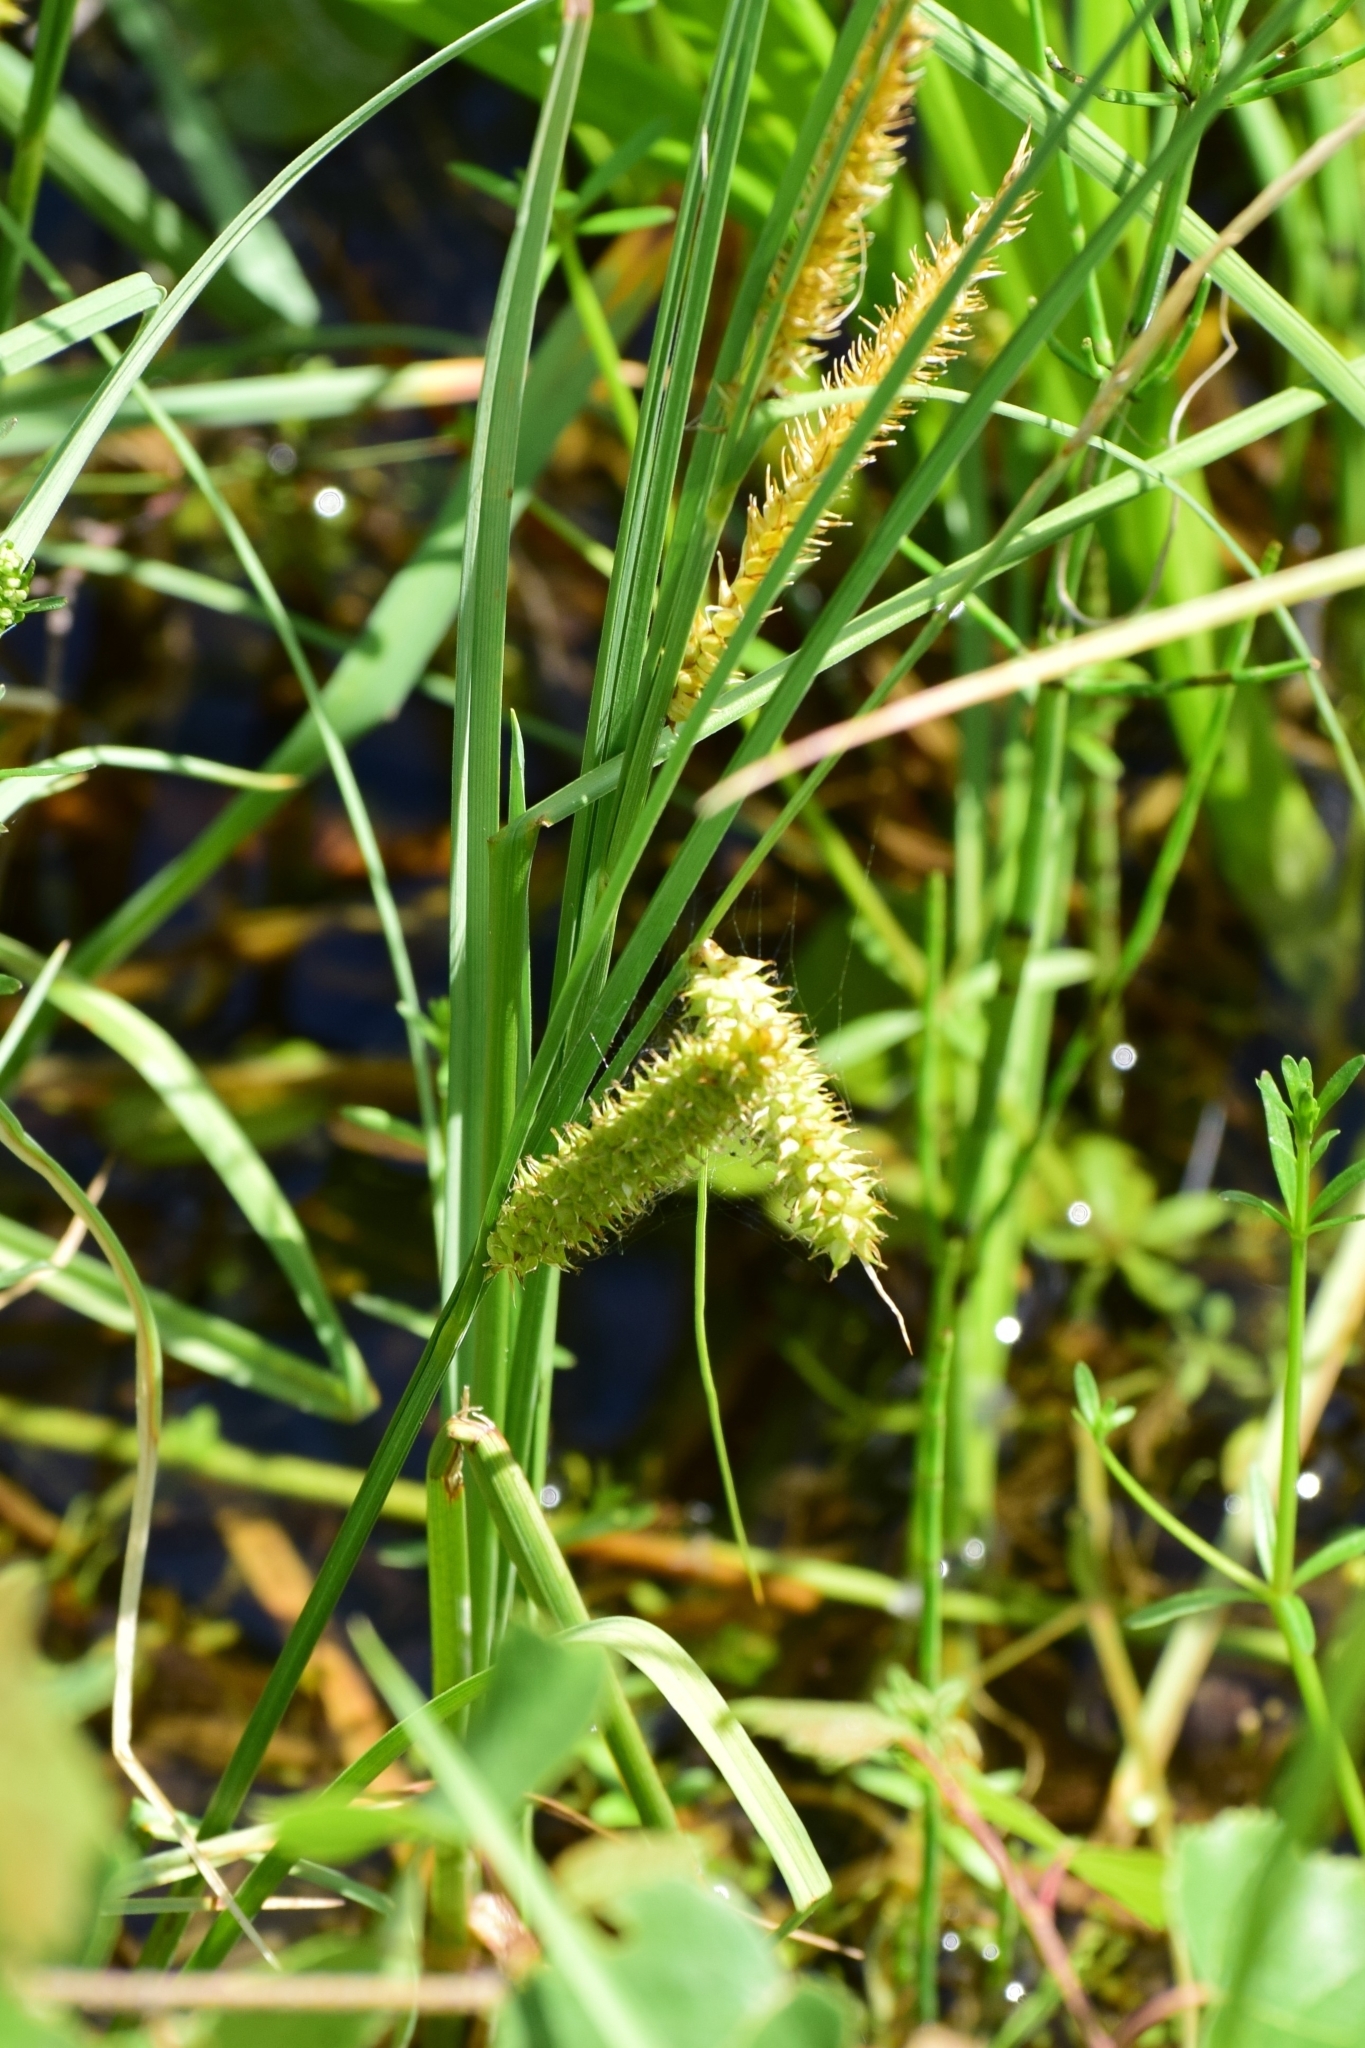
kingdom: Plantae
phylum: Tracheophyta
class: Liliopsida
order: Poales
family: Cyperaceae
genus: Carex
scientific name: Carex rostrata
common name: Bottle sedge
